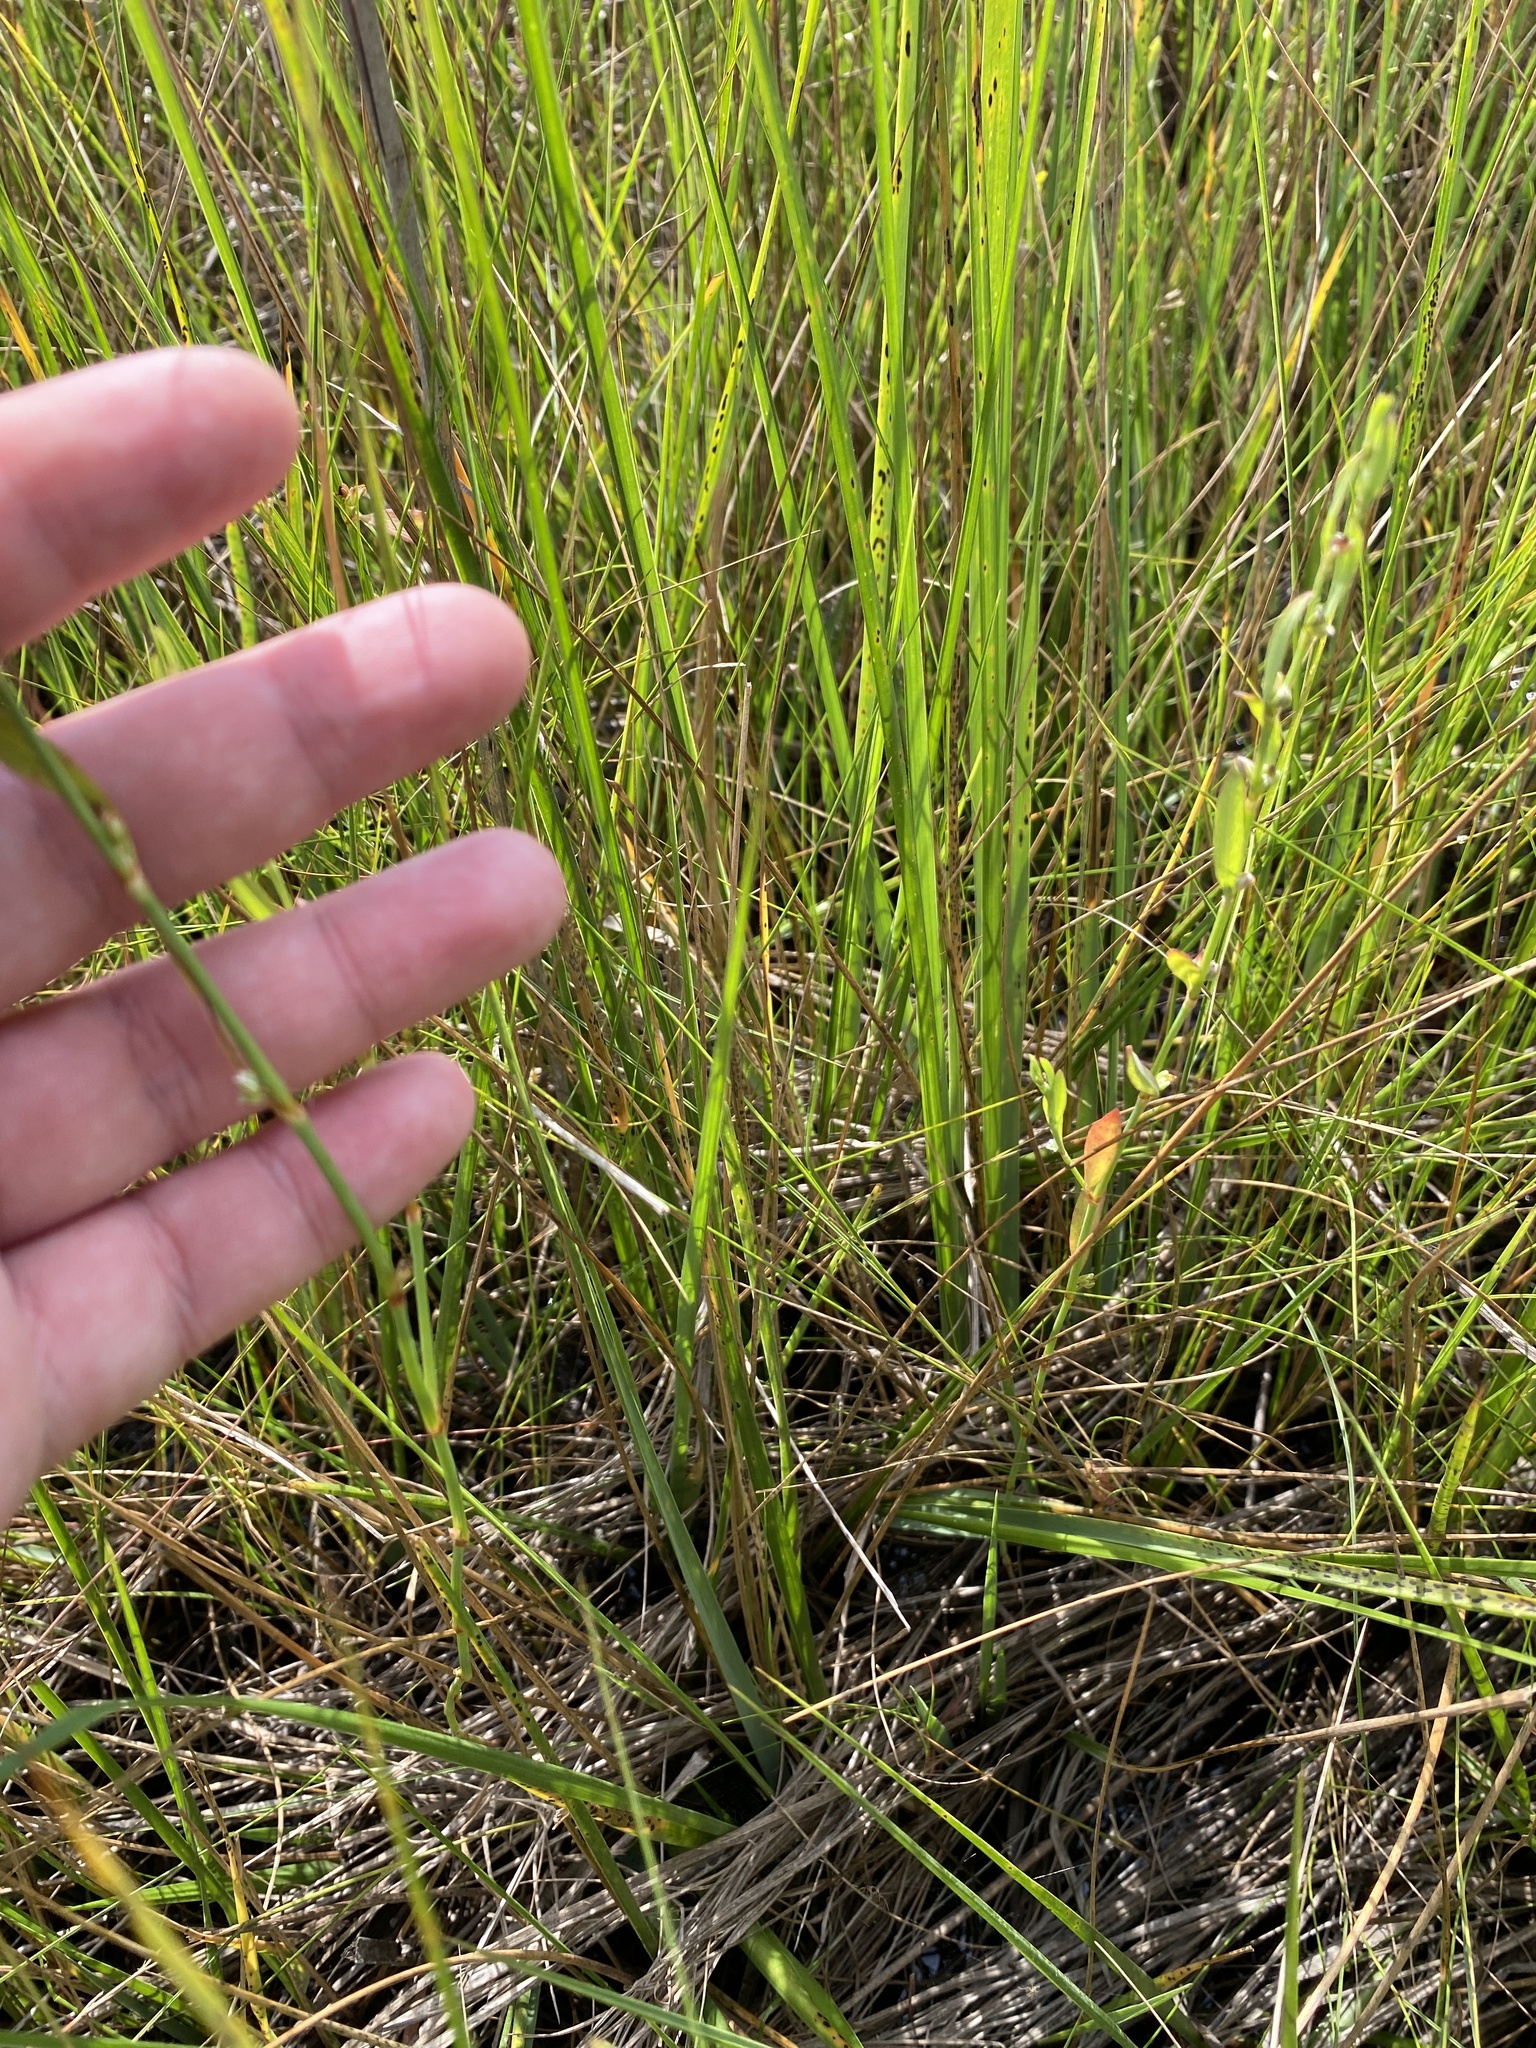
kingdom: Plantae
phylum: Tracheophyta
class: Magnoliopsida
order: Caryophyllales
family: Polygonaceae
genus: Polygonum
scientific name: Polygonum ramosissimum
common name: Bushy knotweed
